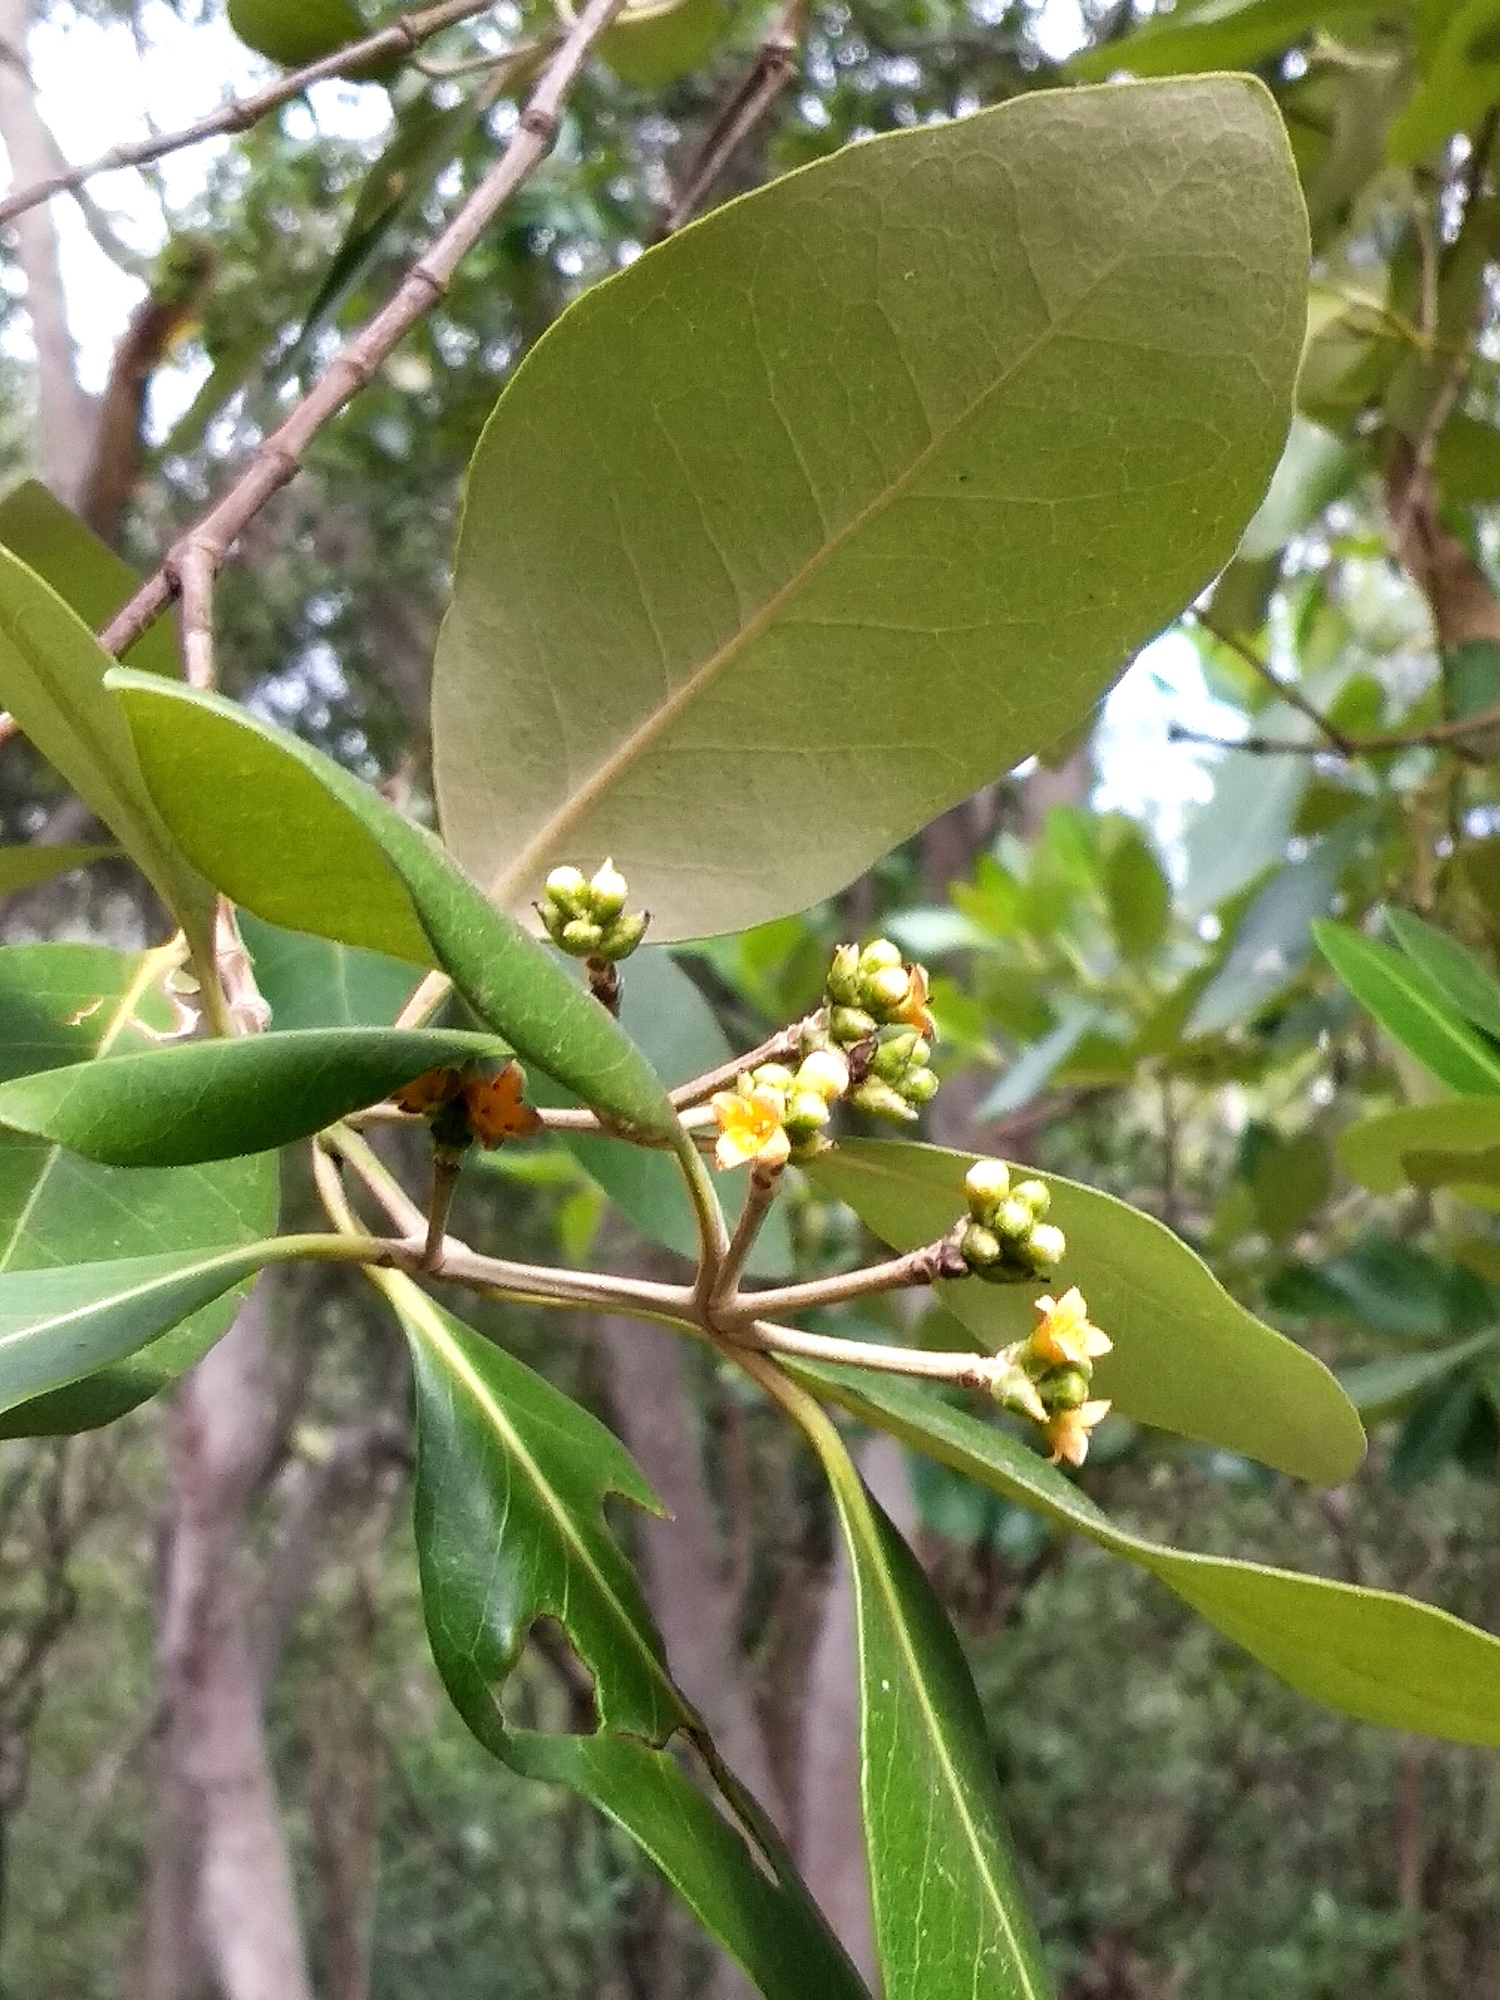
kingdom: Plantae
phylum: Tracheophyta
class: Magnoliopsida
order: Lamiales
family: Acanthaceae
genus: Avicennia
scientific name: Avicennia marina
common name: Gray mangrove
